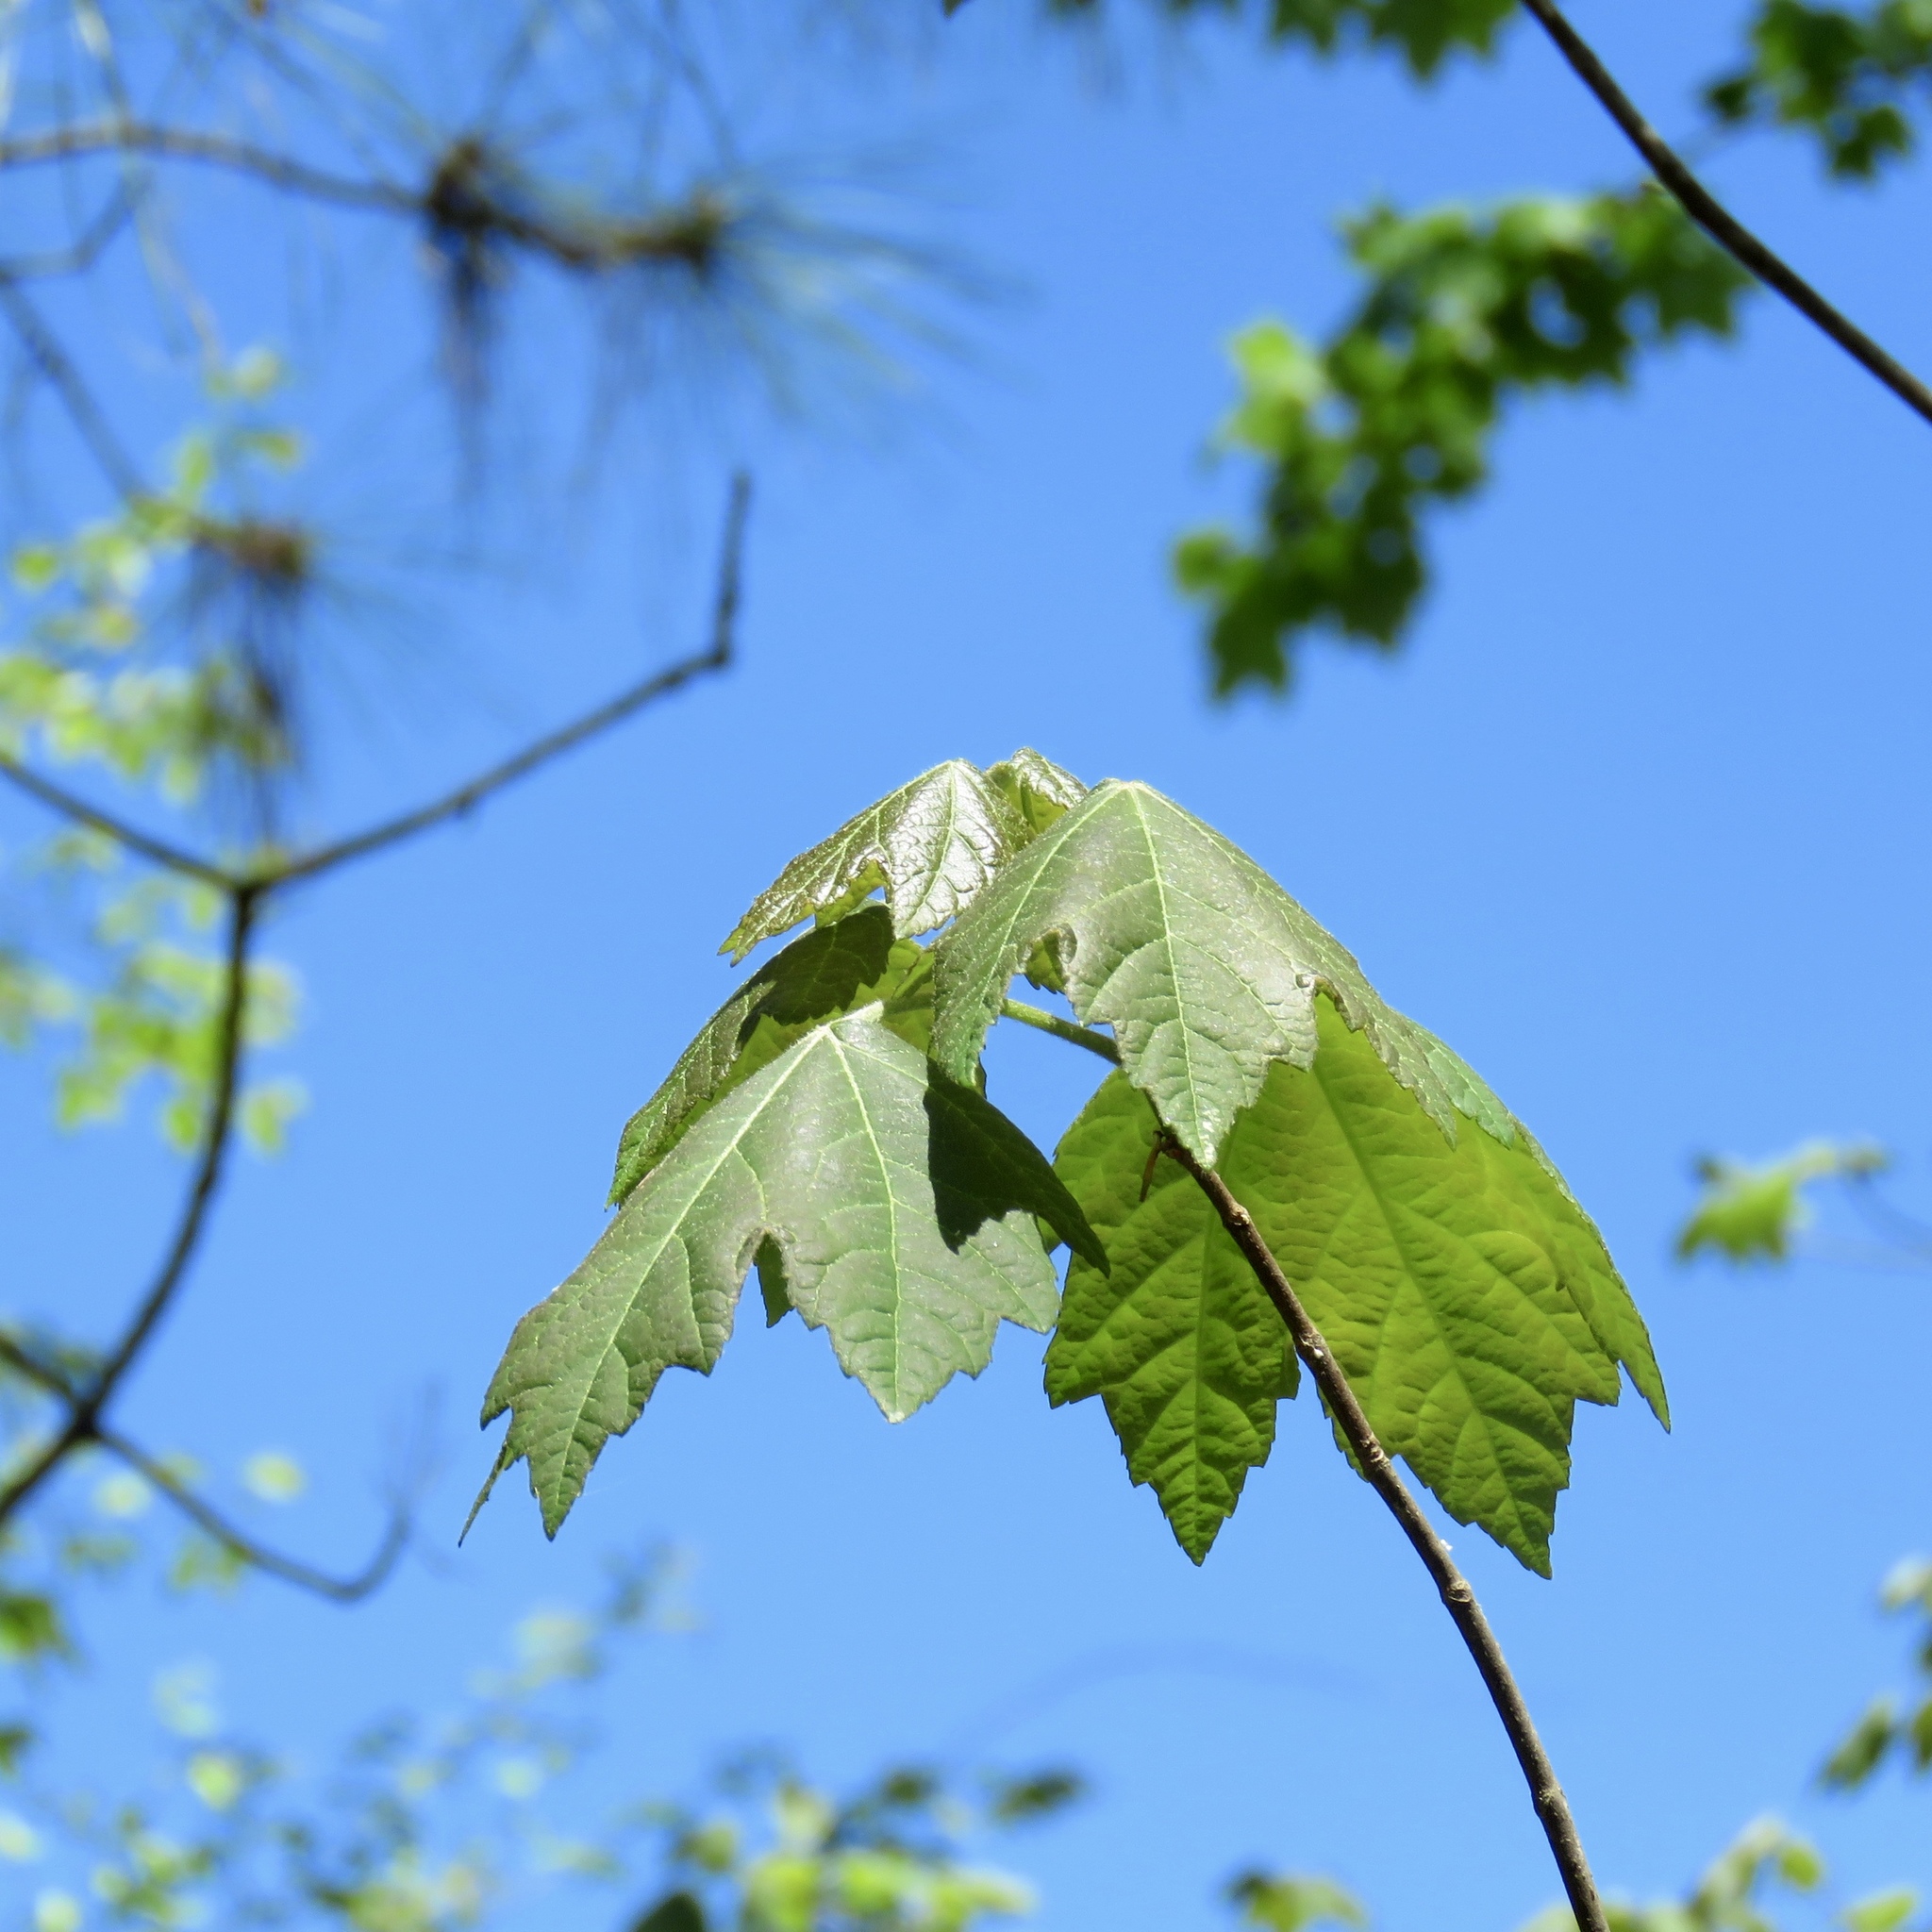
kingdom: Plantae
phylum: Tracheophyta
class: Magnoliopsida
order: Sapindales
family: Sapindaceae
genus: Acer
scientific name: Acer rubrum
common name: Red maple
